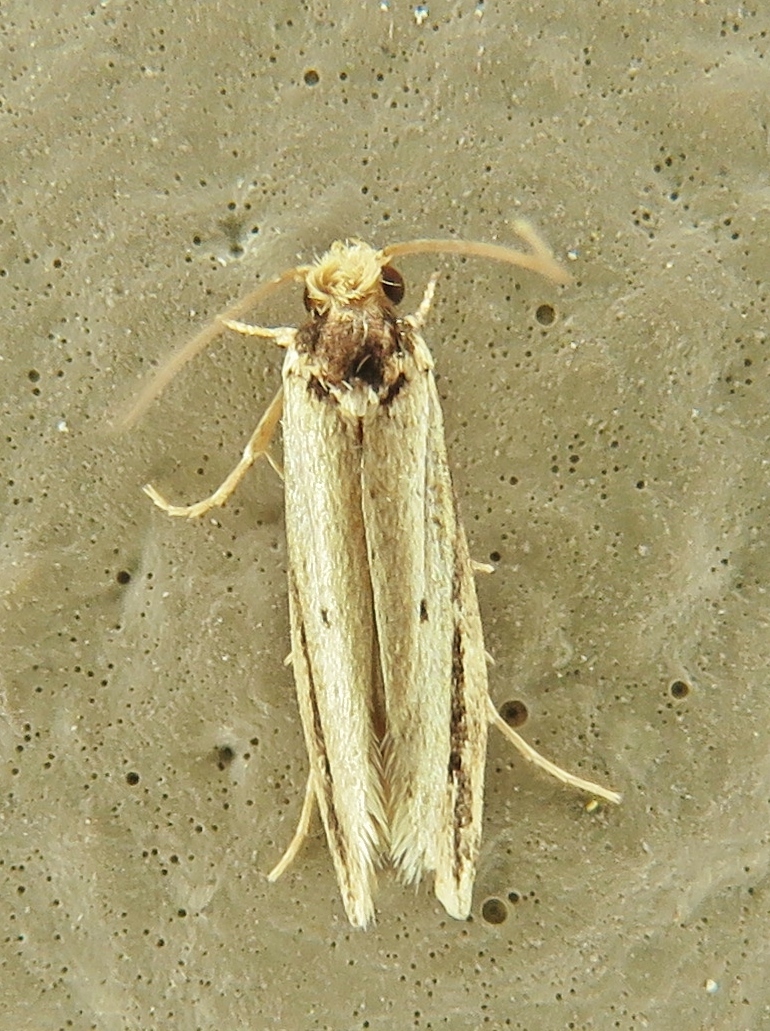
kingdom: Animalia
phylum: Arthropoda
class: Insecta
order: Lepidoptera
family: Tineidae
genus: Tinea
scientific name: Tinea apicimaculella
